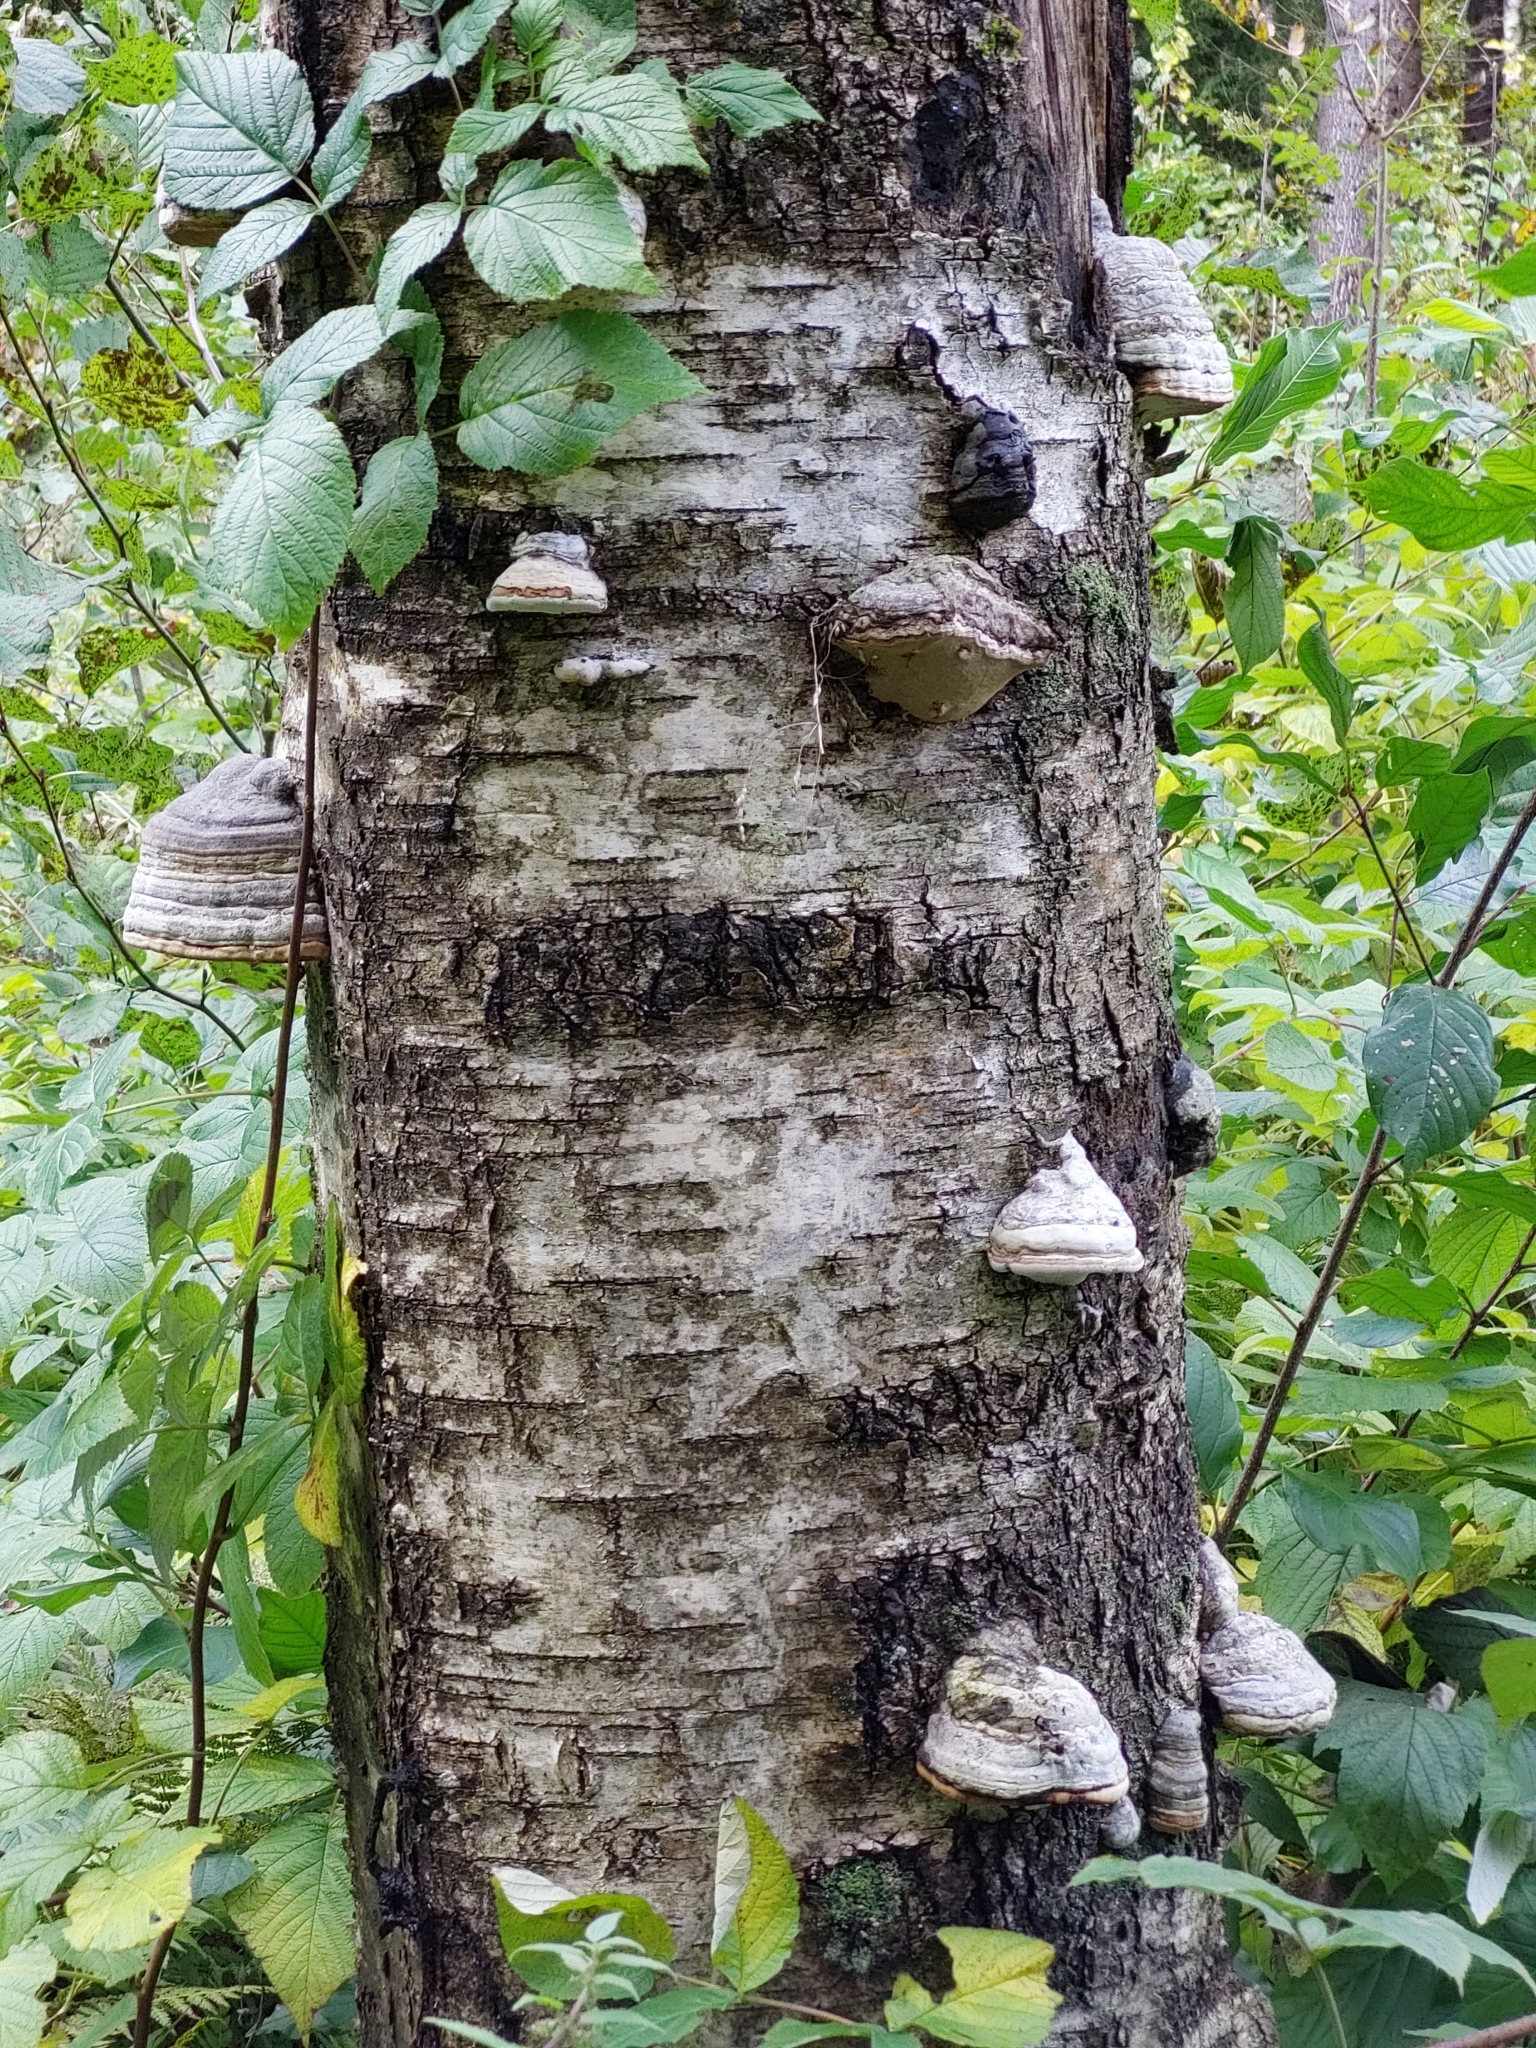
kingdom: Fungi
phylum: Basidiomycota
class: Agaricomycetes
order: Polyporales
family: Polyporaceae
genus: Fomes
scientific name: Fomes fomentarius
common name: Hoof fungus
